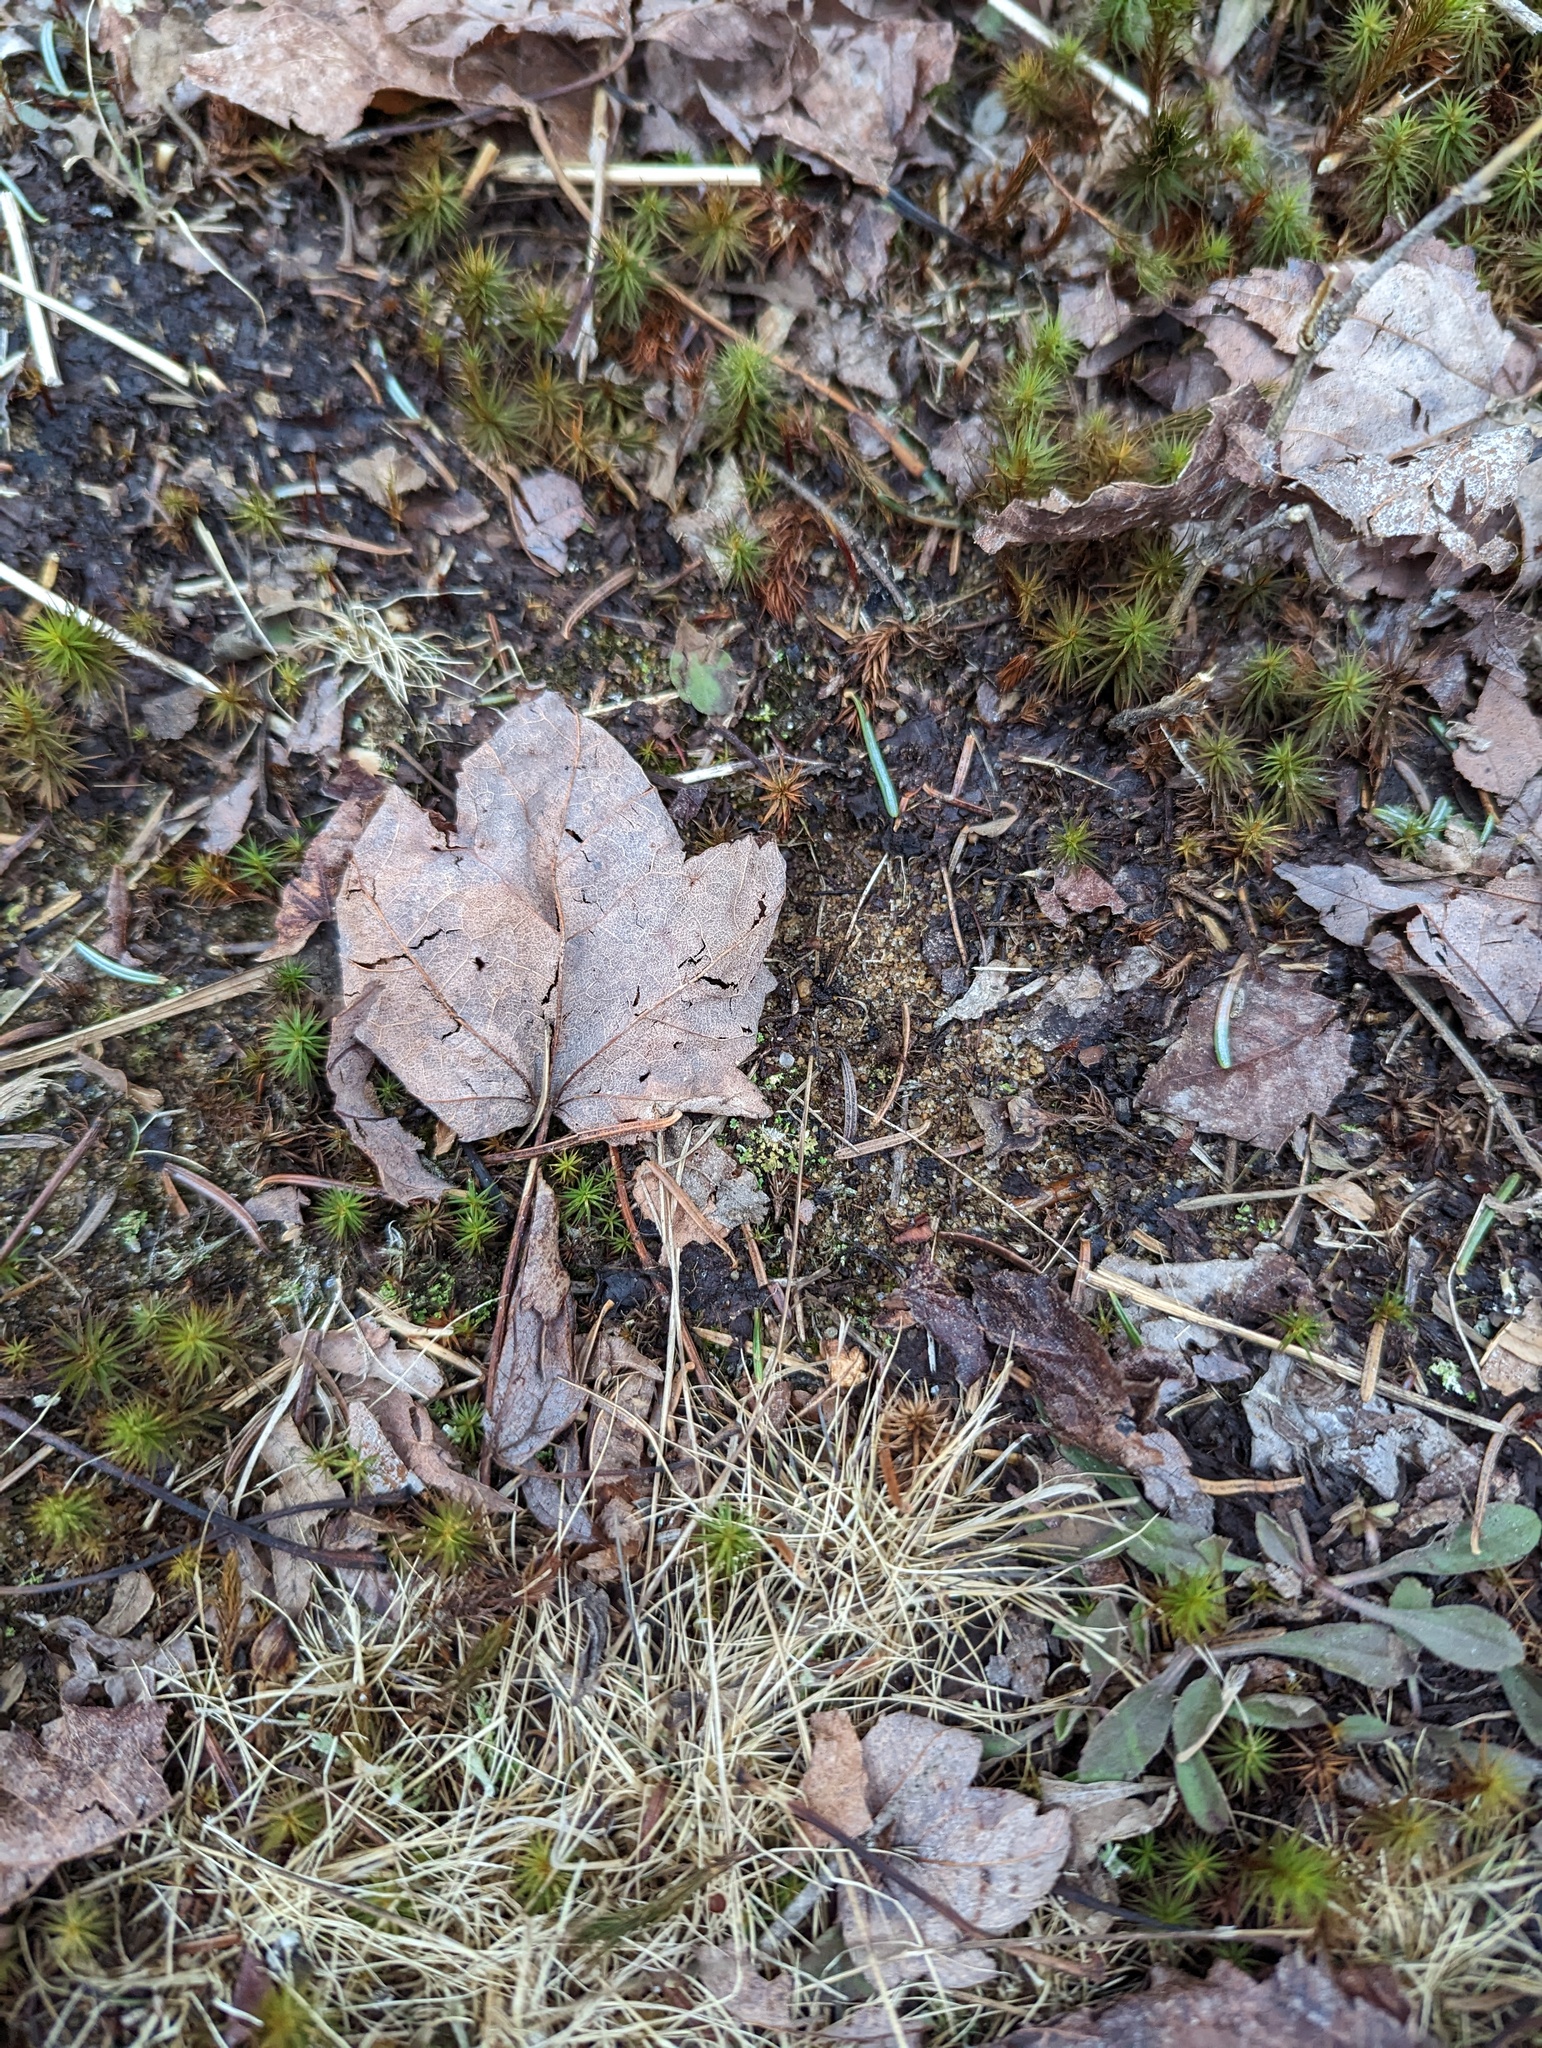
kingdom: Plantae
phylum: Tracheophyta
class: Magnoliopsida
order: Sapindales
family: Sapindaceae
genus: Acer
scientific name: Acer rubrum
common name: Red maple
